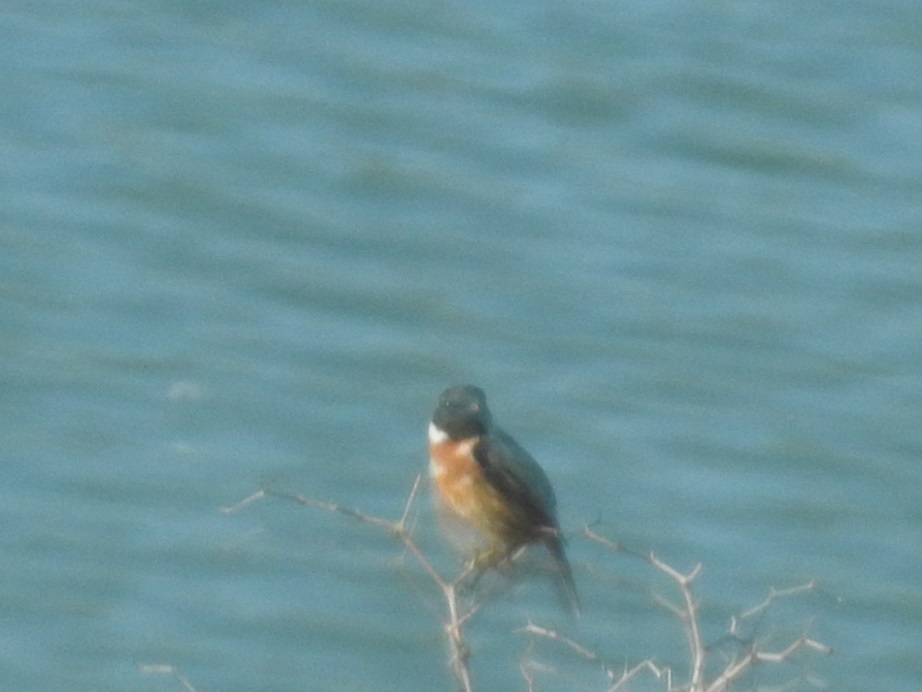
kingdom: Animalia
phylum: Chordata
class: Aves
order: Passeriformes
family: Muscicapidae
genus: Saxicola
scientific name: Saxicola rubicola
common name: European stonechat
